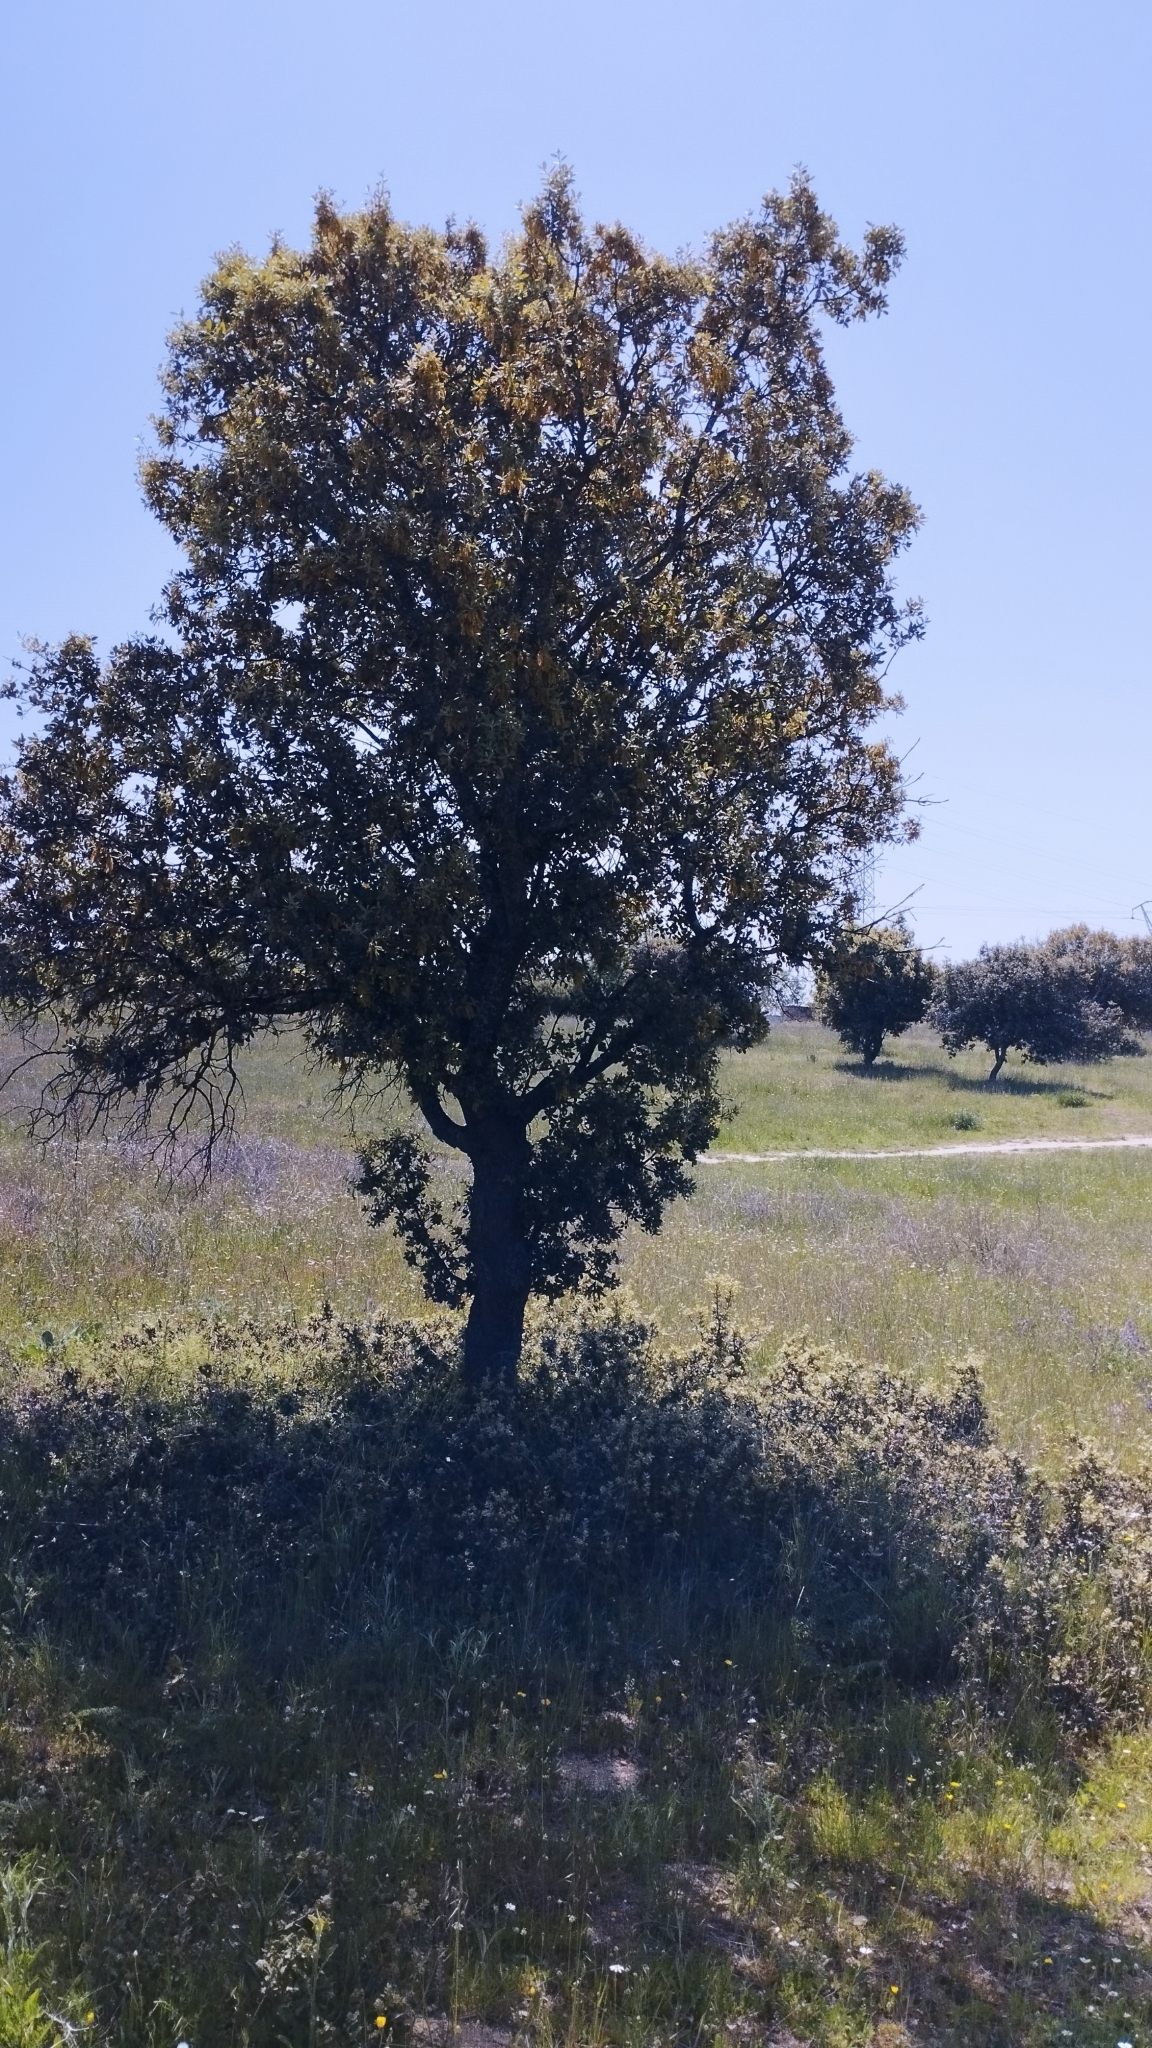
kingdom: Plantae
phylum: Tracheophyta
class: Magnoliopsida
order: Fagales
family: Fagaceae
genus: Quercus
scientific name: Quercus rotundifolia
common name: Holm oak
